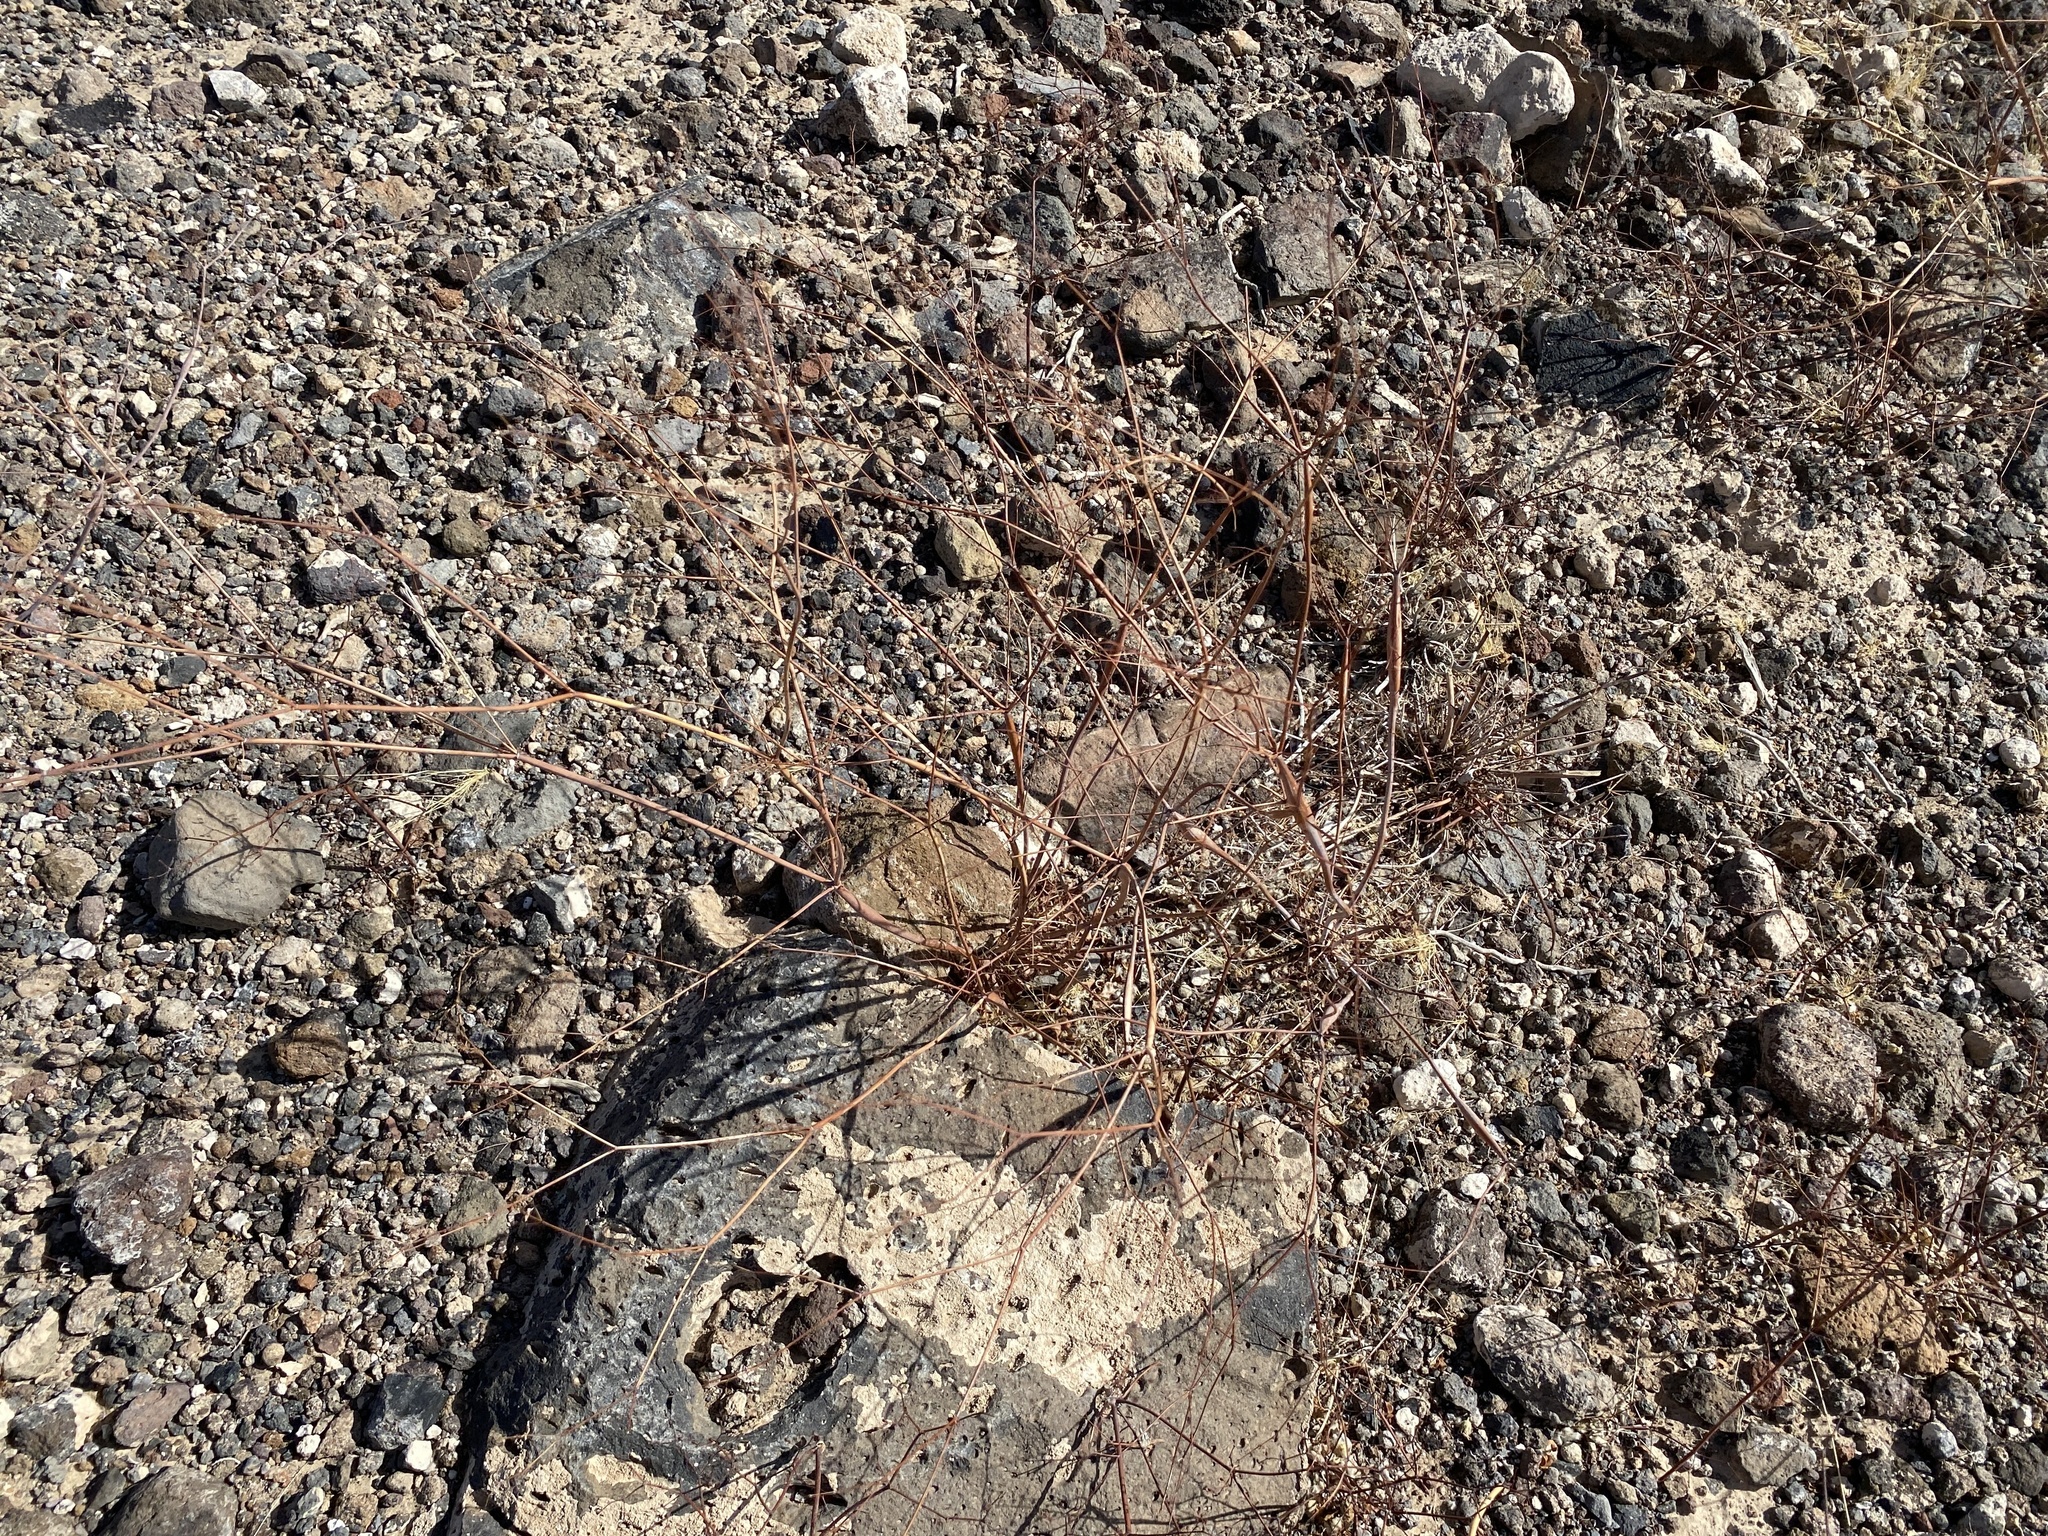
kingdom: Plantae
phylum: Tracheophyta
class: Magnoliopsida
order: Caryophyllales
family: Polygonaceae
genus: Eriogonum
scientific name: Eriogonum inflatum
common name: Desert trumpet
